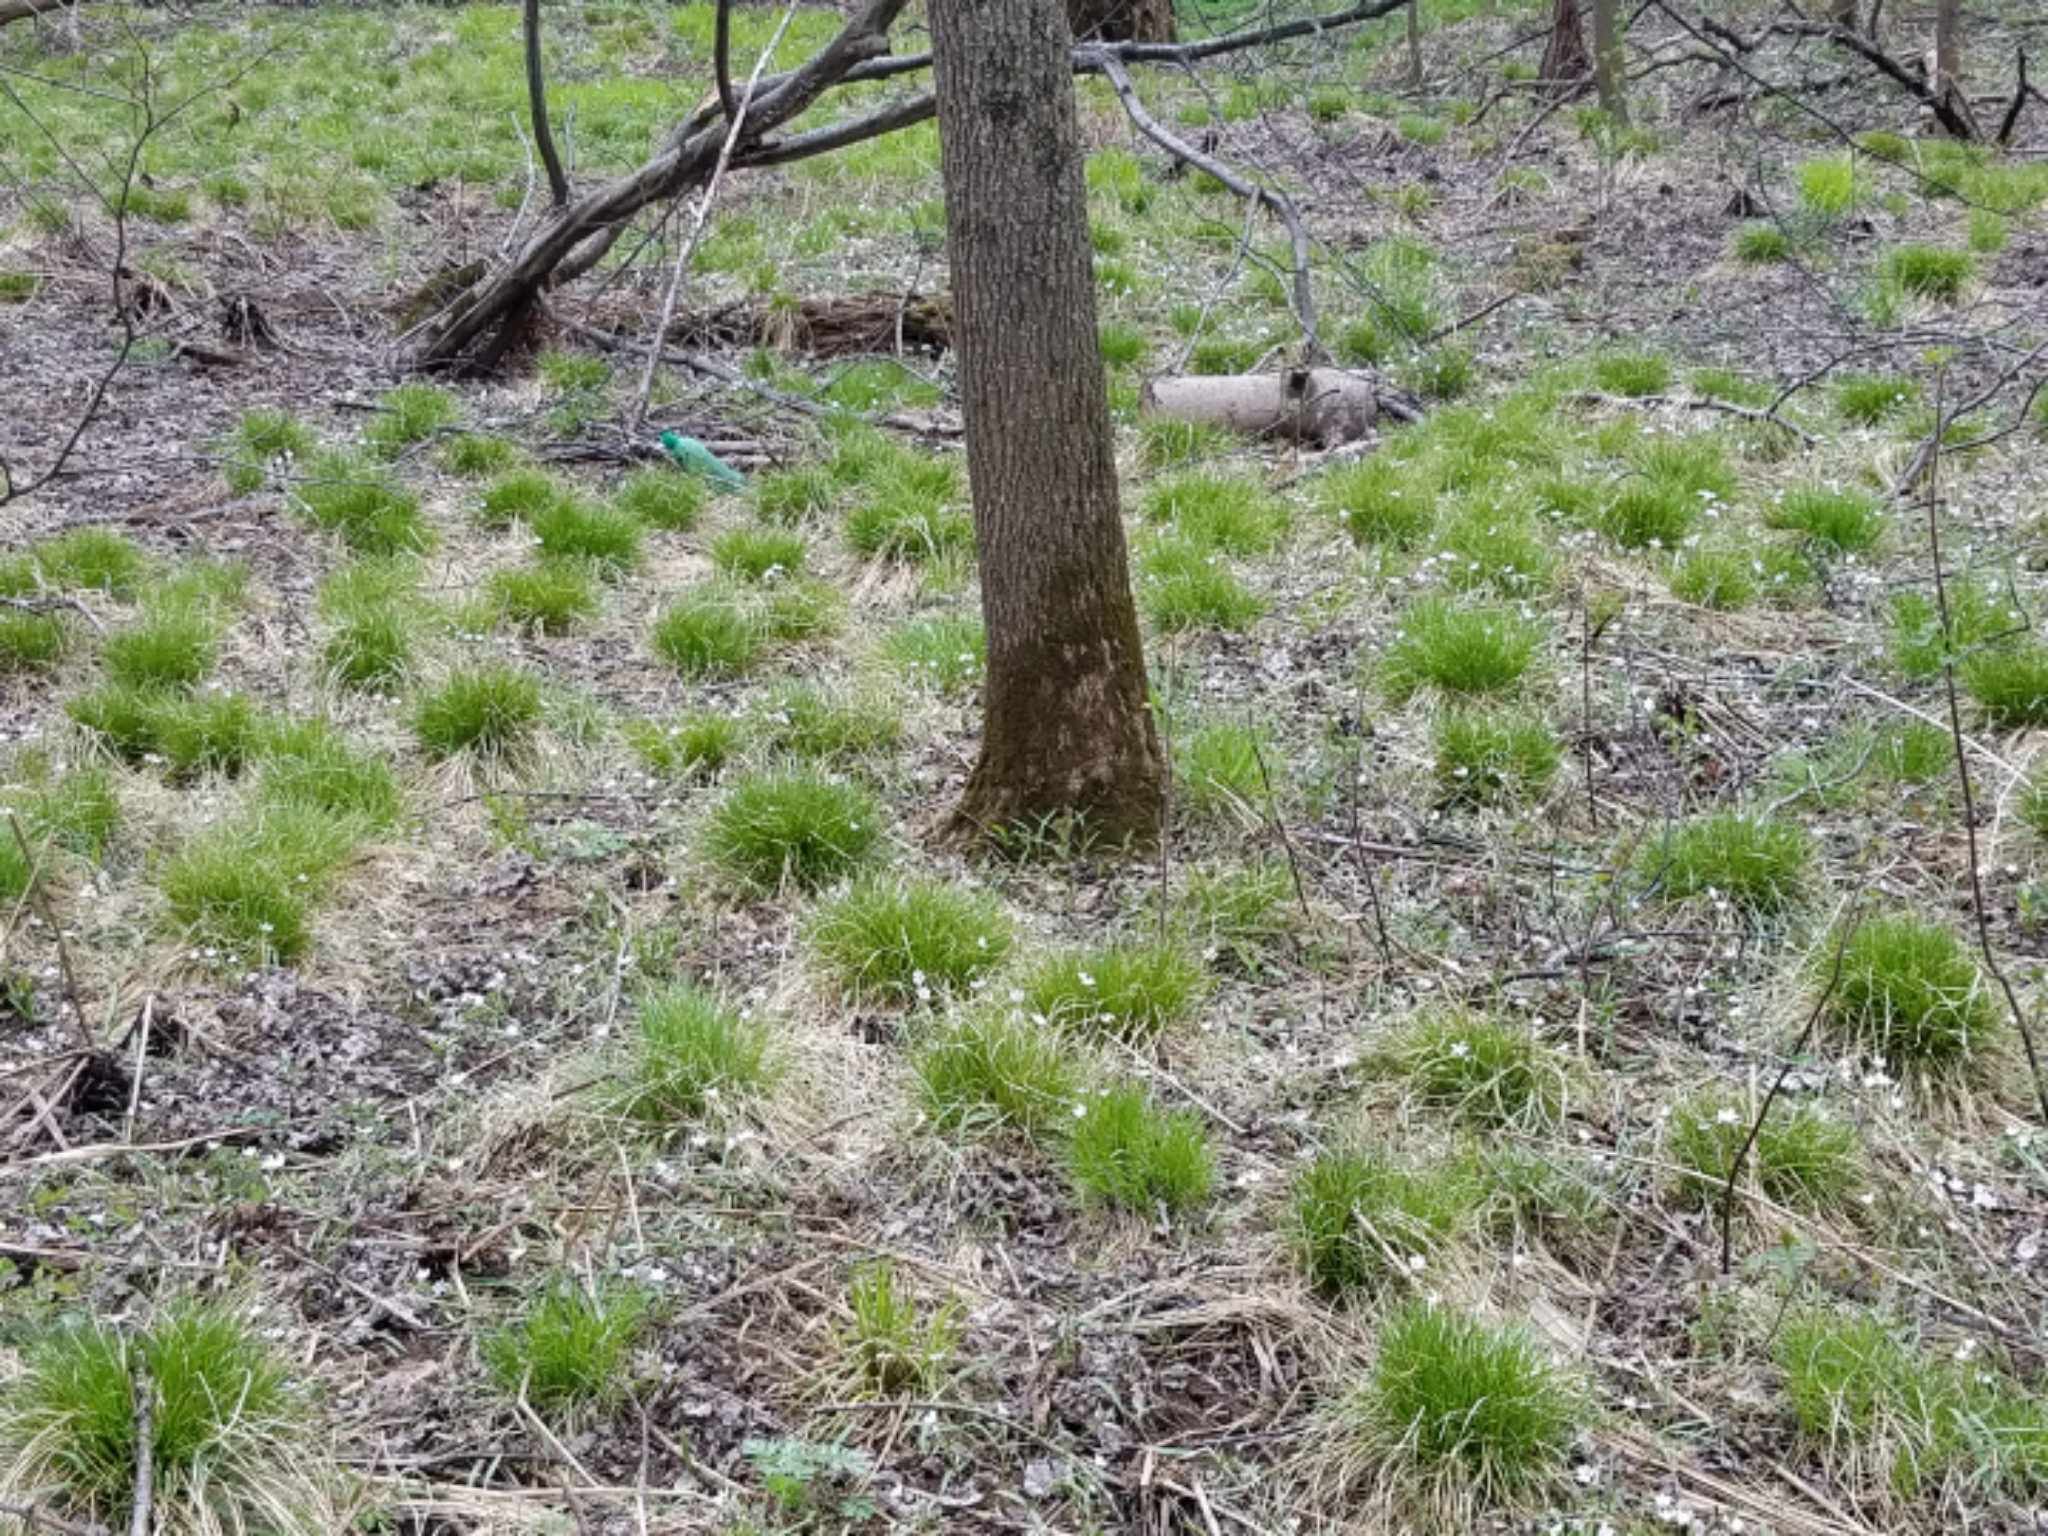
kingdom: Plantae
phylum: Tracheophyta
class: Liliopsida
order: Poales
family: Cyperaceae
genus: Carex
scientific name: Carex bromoides
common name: Brome hummock sedge
